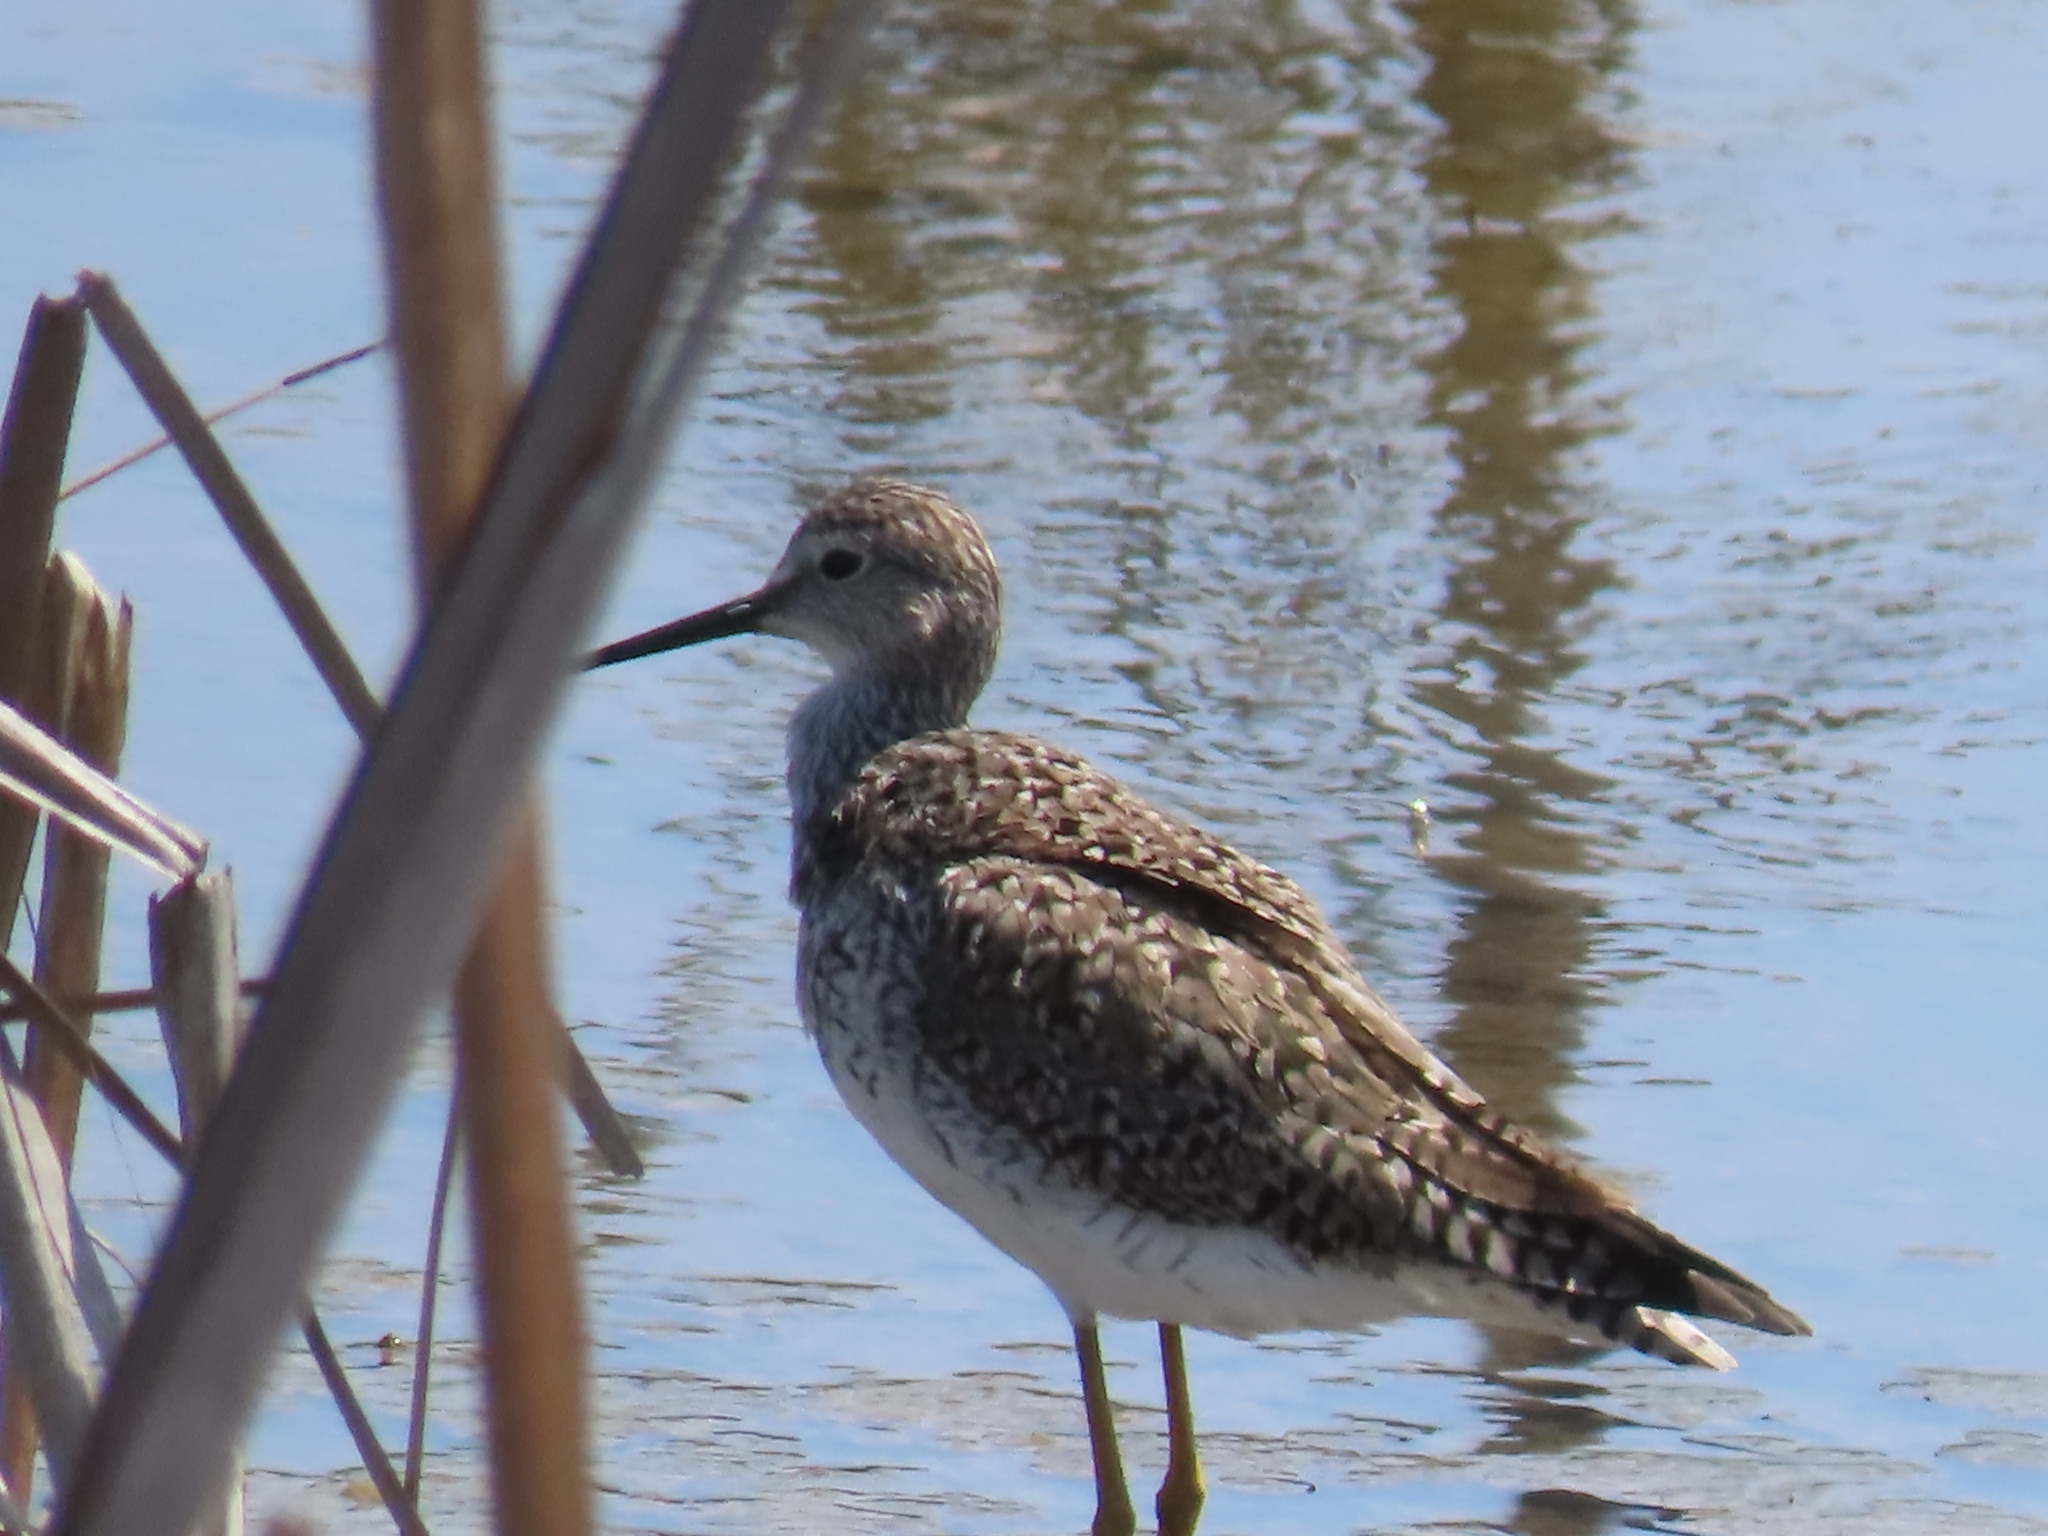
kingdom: Animalia
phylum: Chordata
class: Aves
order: Charadriiformes
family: Scolopacidae
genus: Tringa
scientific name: Tringa melanoleuca
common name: Greater yellowlegs
